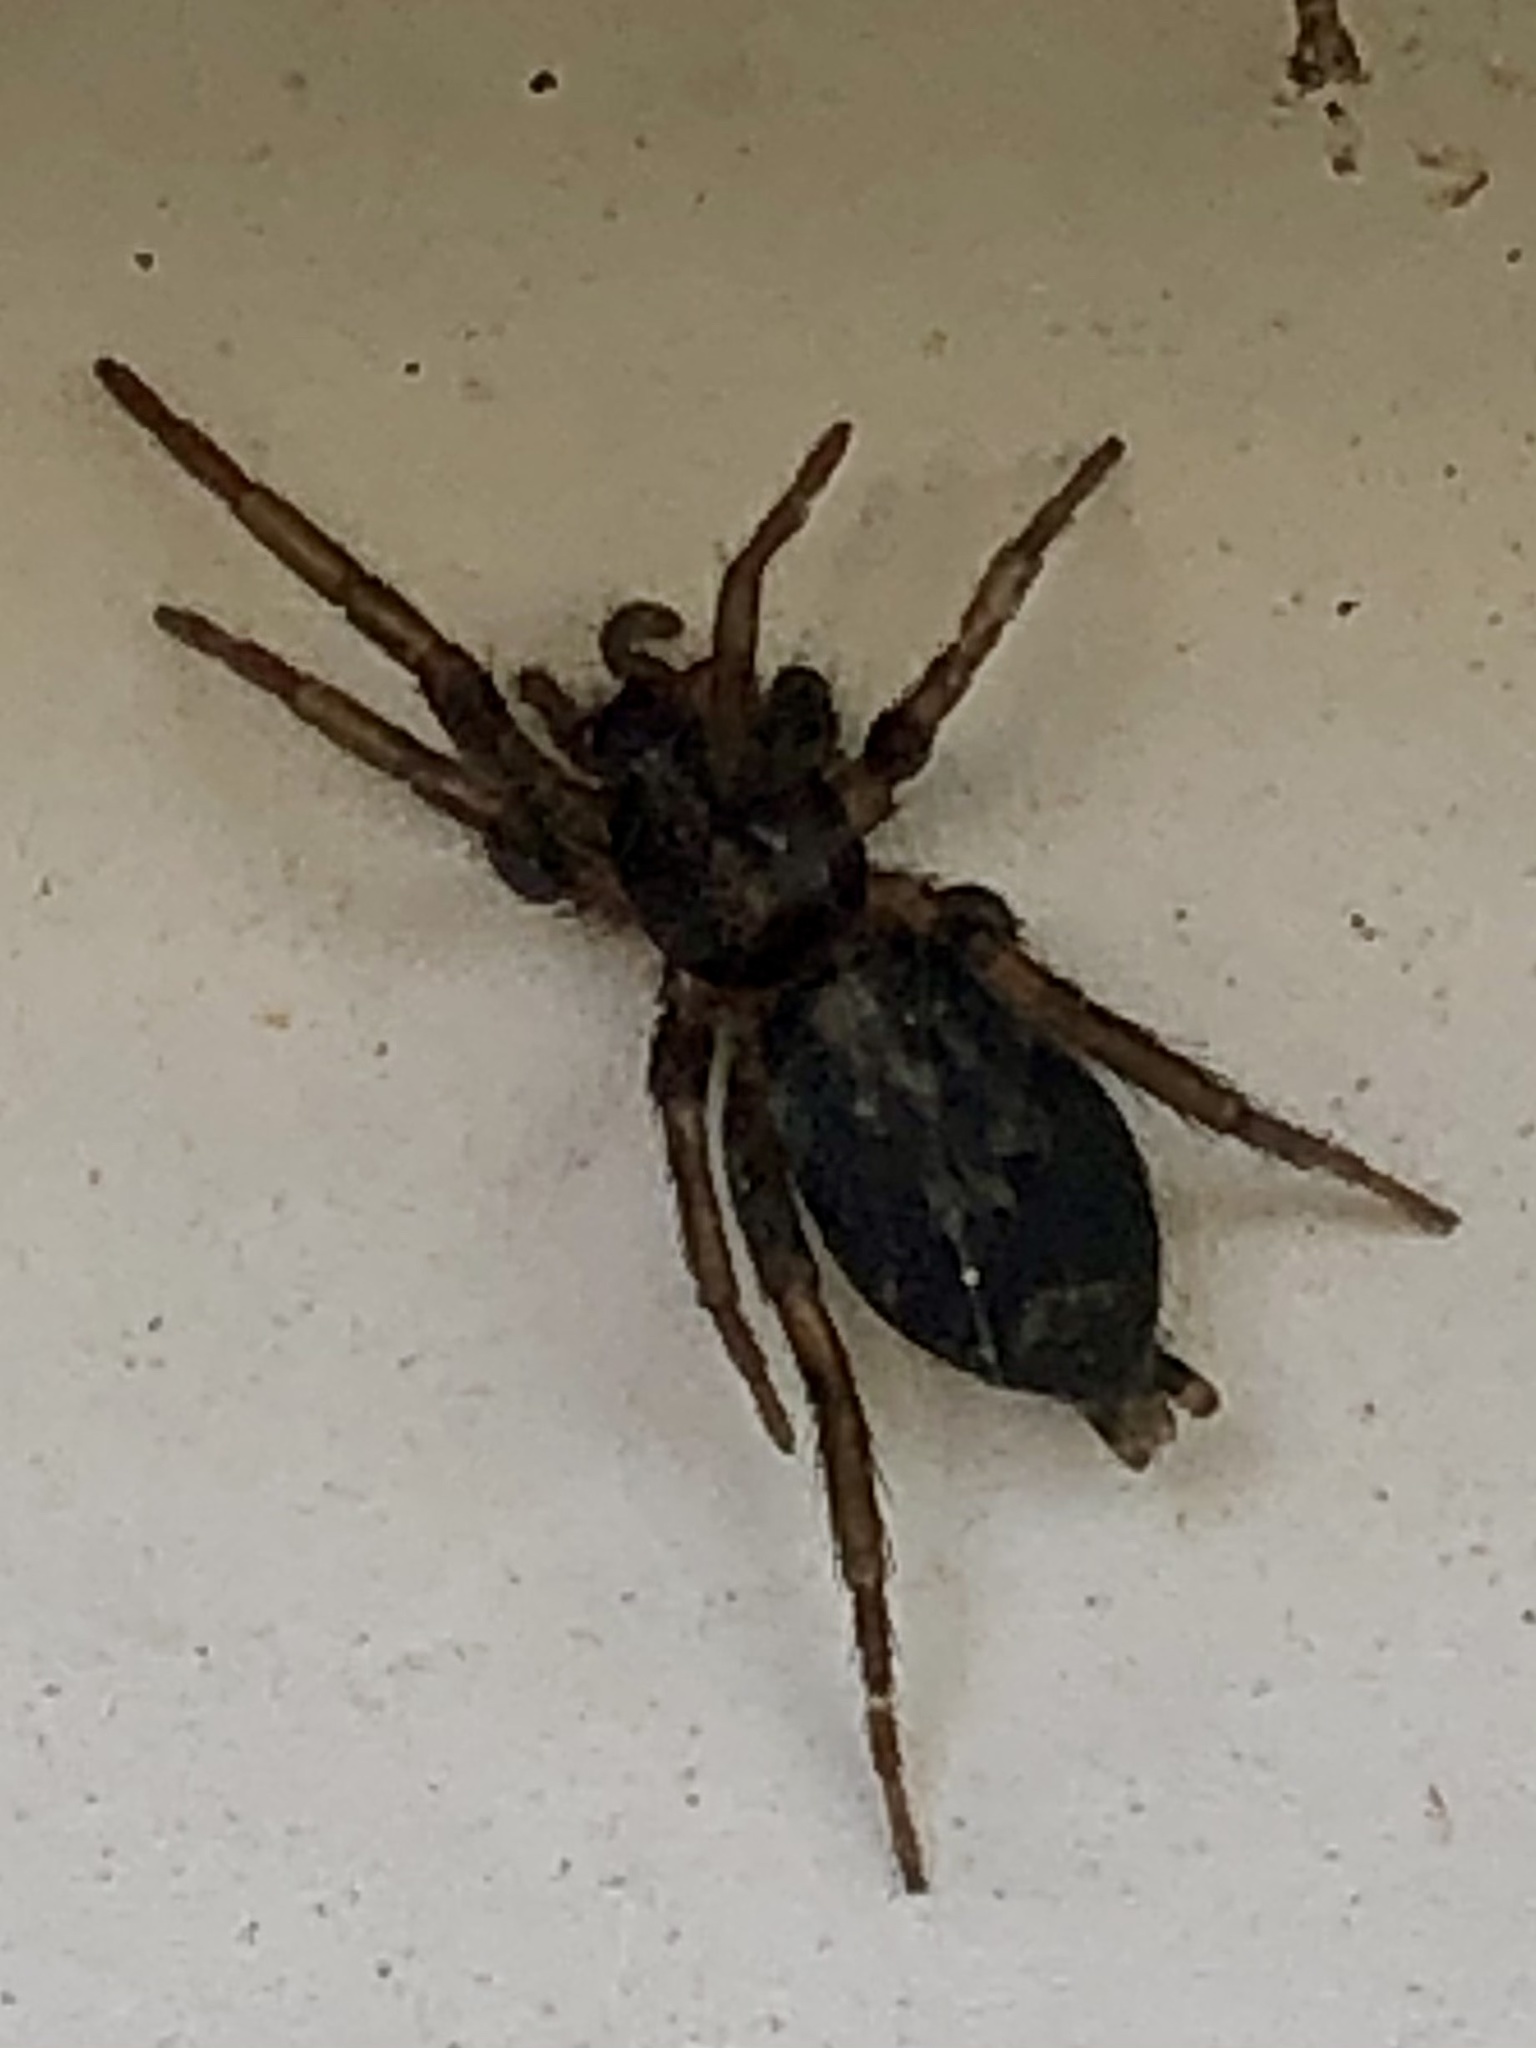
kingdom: Animalia
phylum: Arthropoda
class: Arachnida
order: Araneae
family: Gnaphosidae
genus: Herpyllus
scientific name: Herpyllus ecclesiasticus
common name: Eastern parson spider
